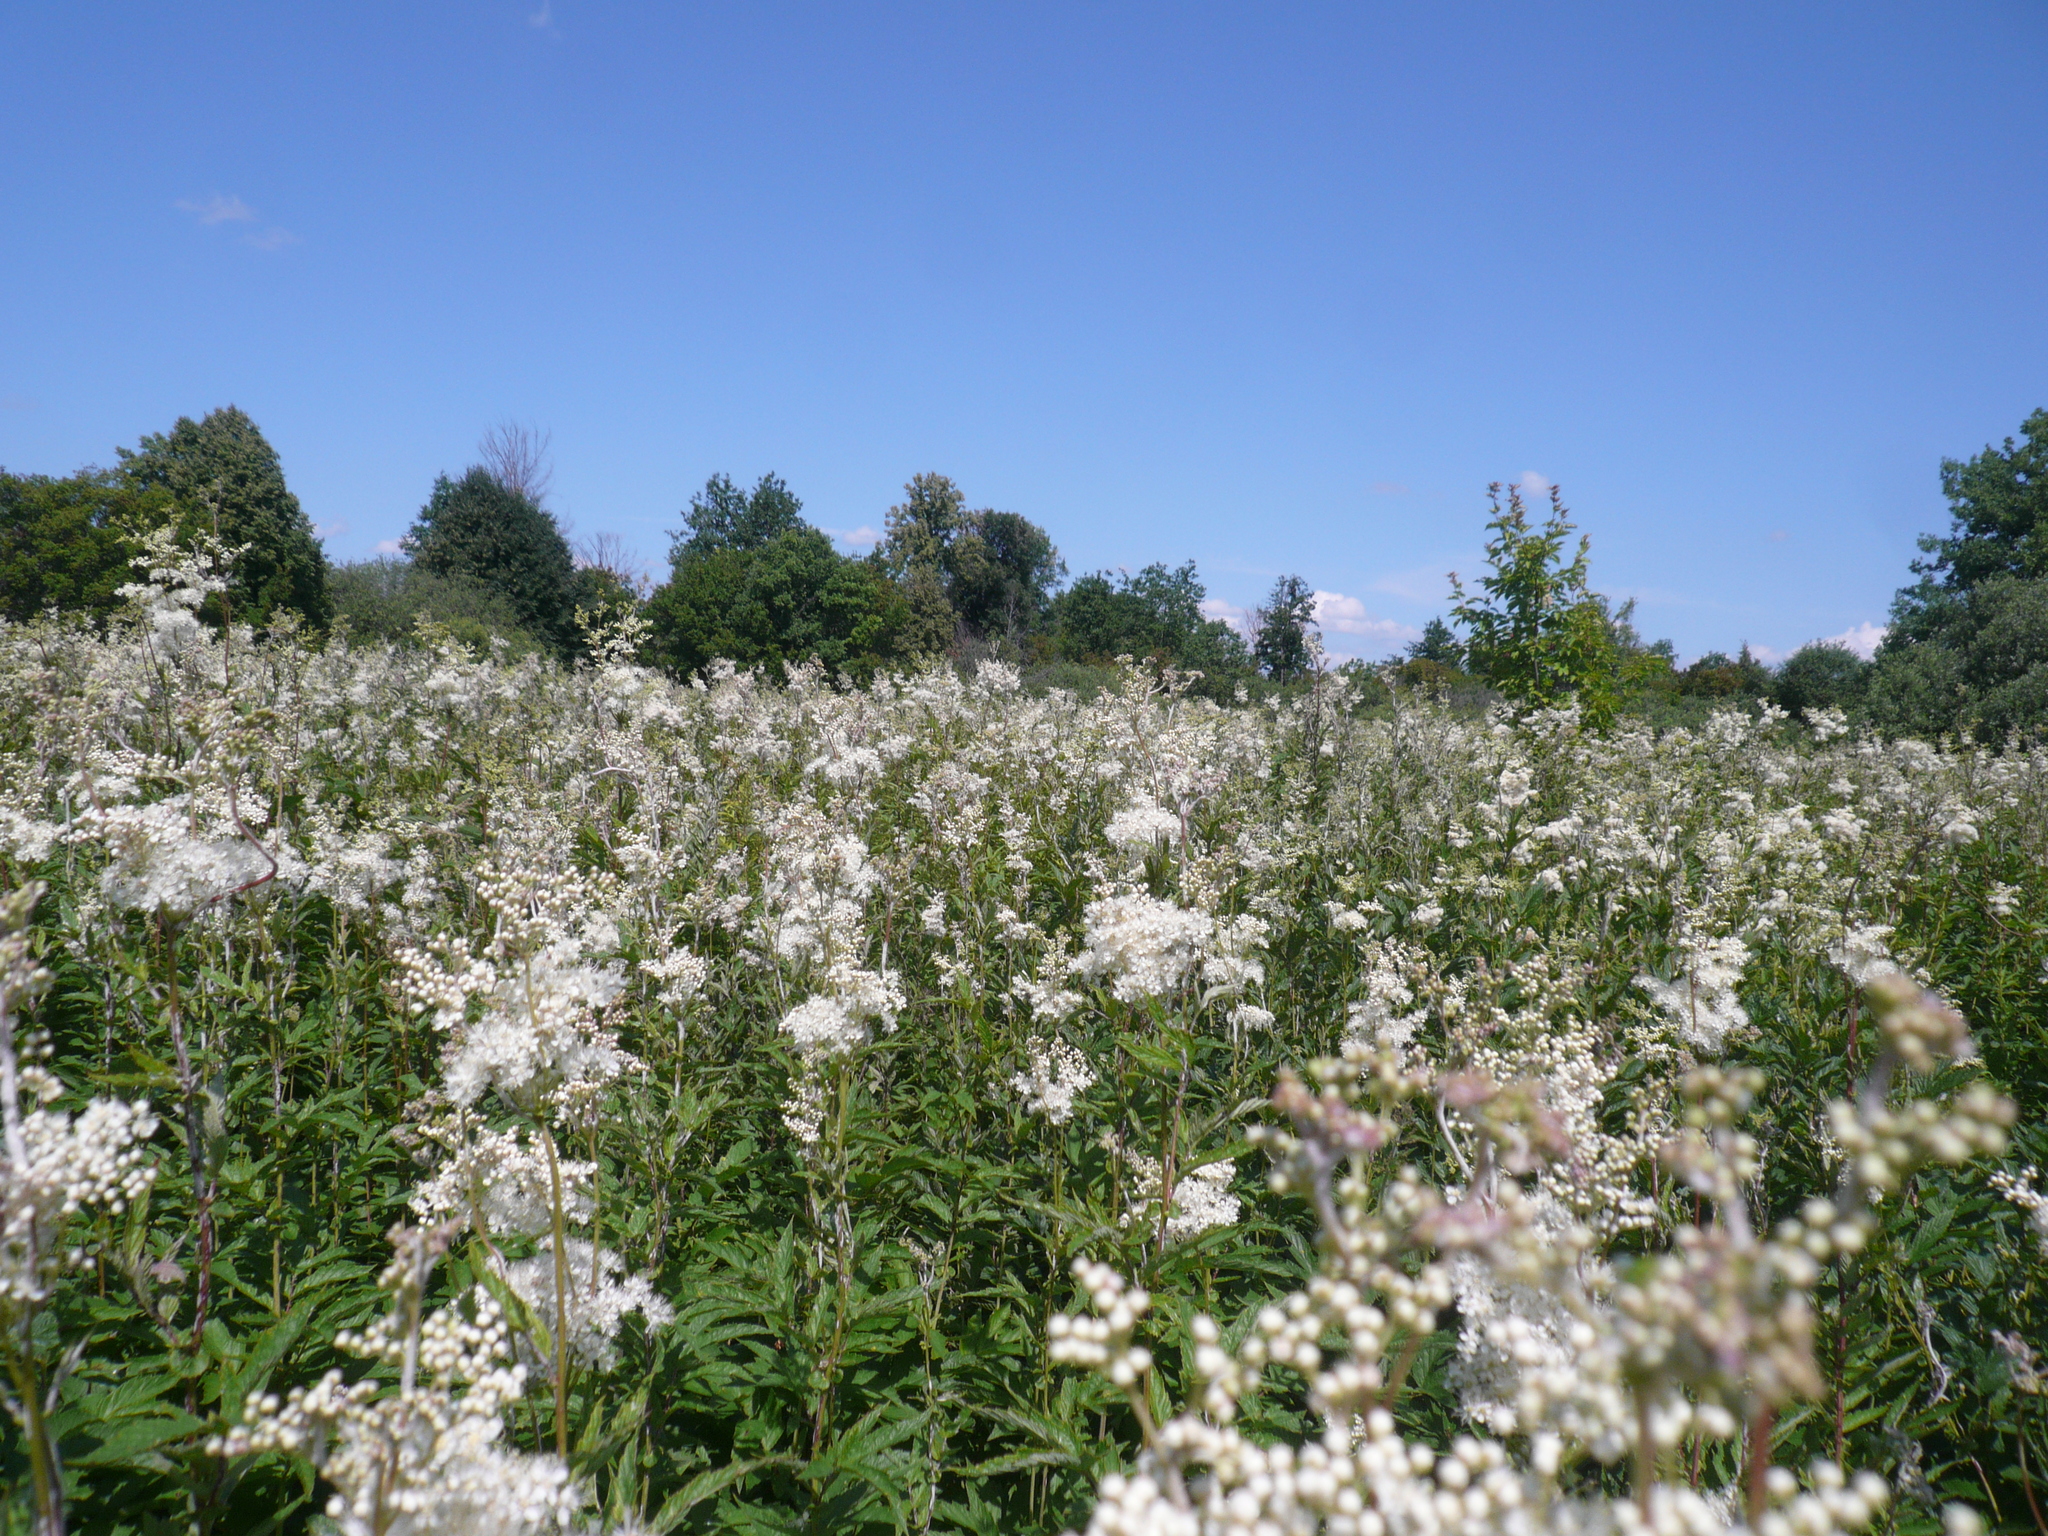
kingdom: Plantae
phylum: Tracheophyta
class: Magnoliopsida
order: Rosales
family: Rosaceae
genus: Filipendula
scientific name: Filipendula ulmaria
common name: Meadowsweet
